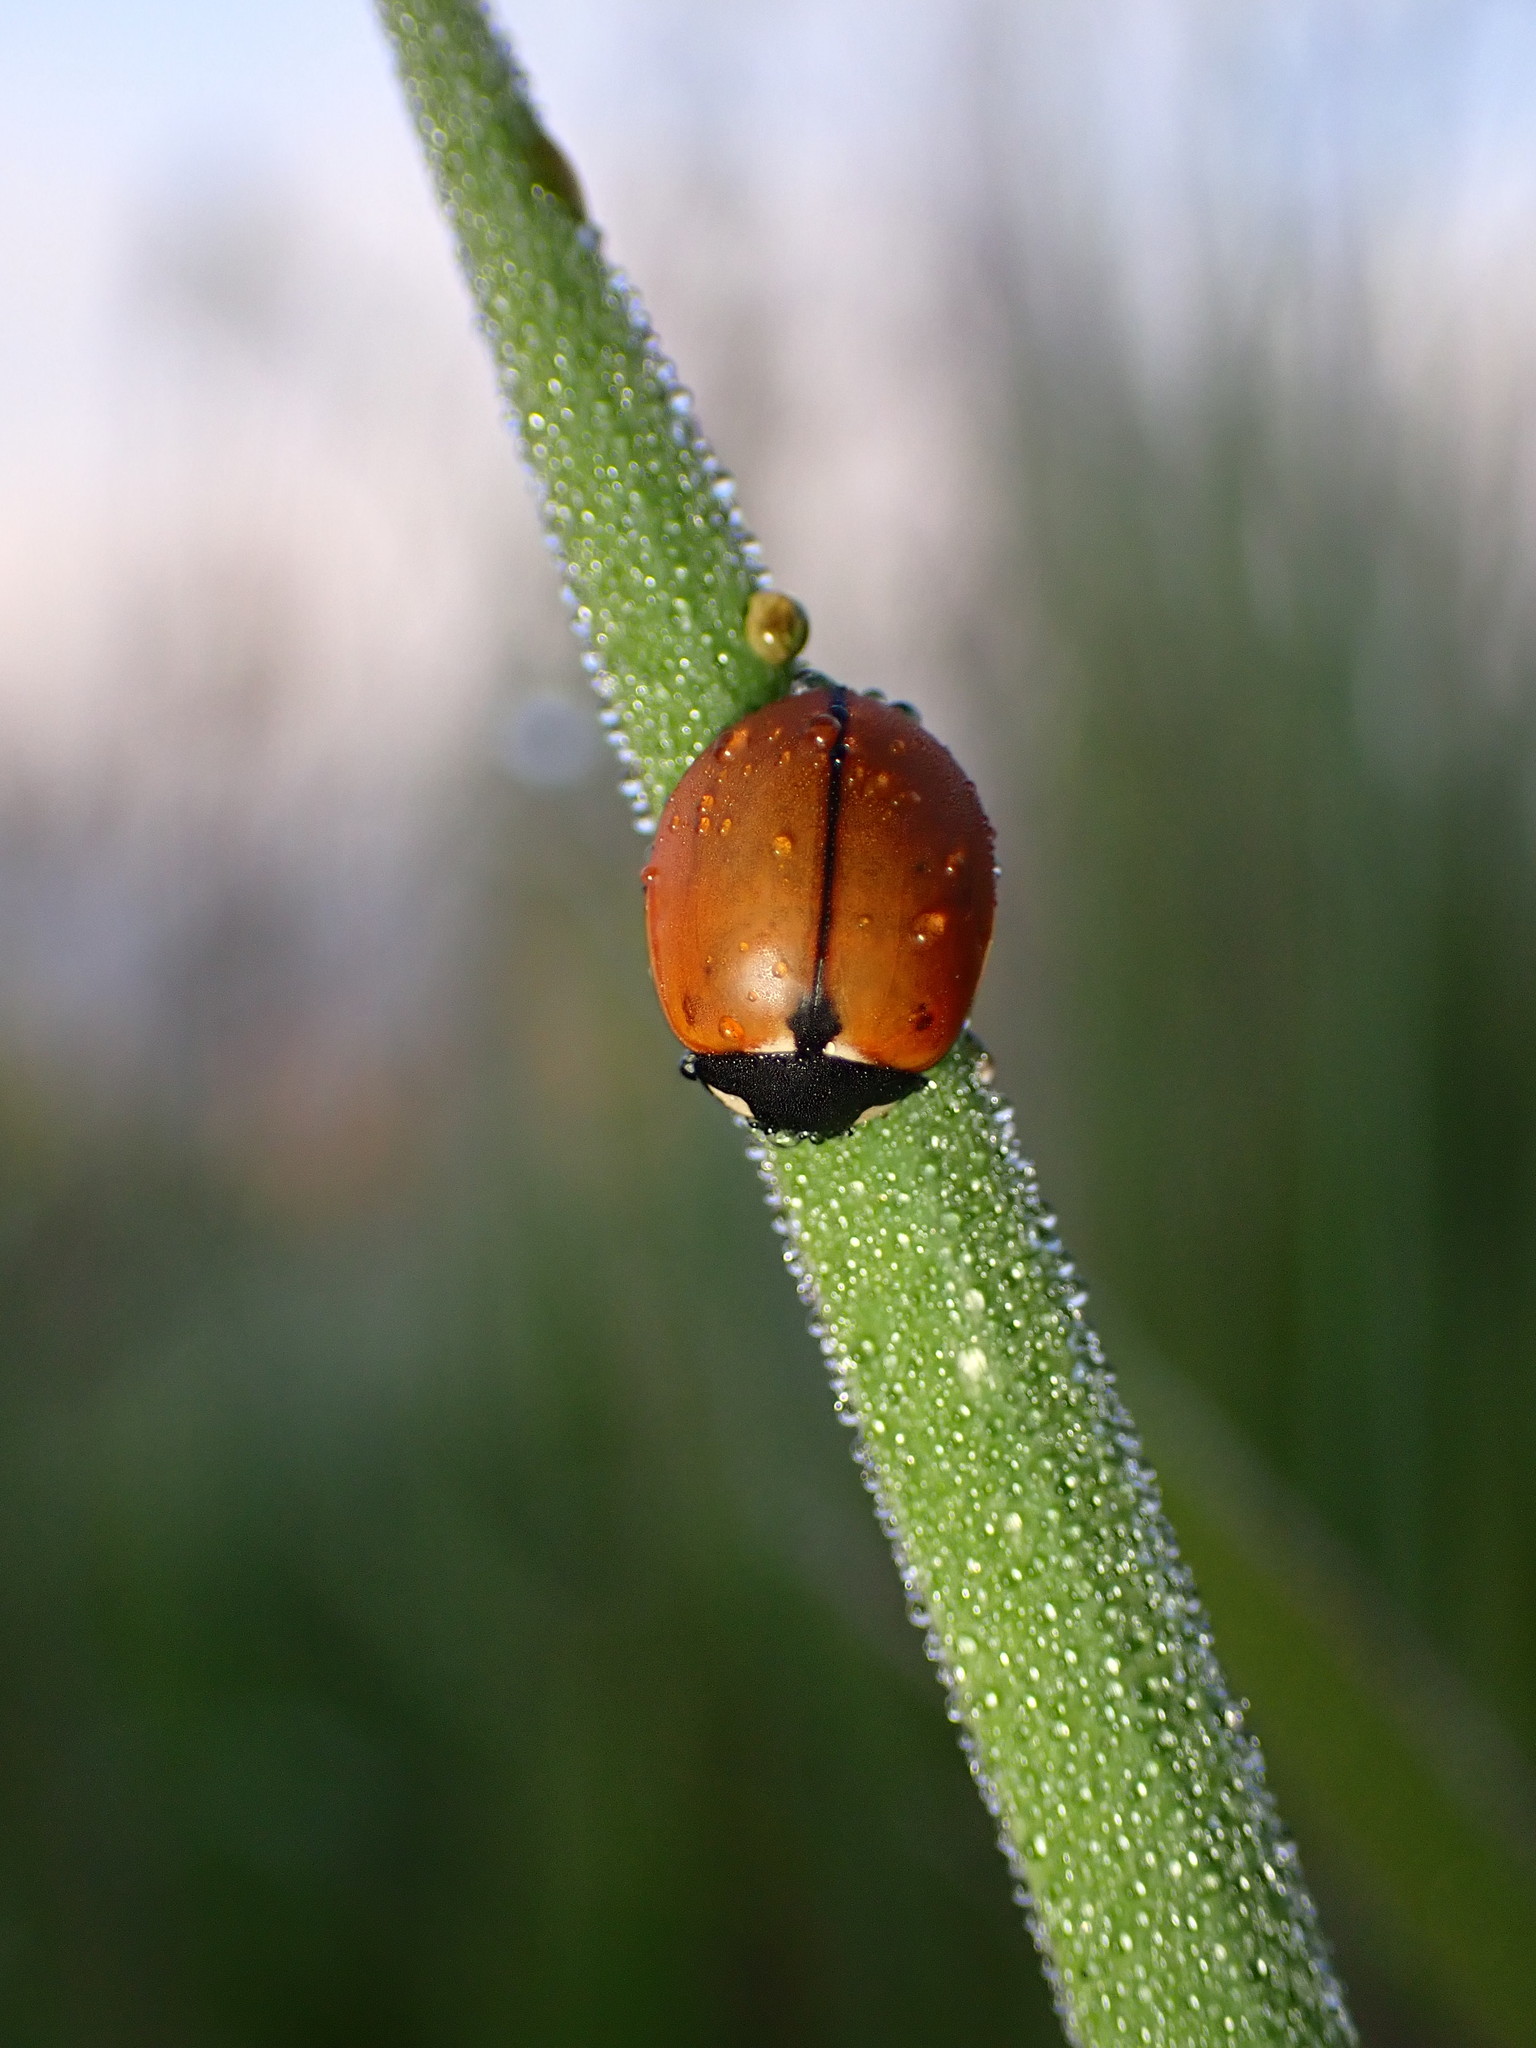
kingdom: Animalia
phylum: Arthropoda
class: Insecta
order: Coleoptera
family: Coccinellidae
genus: Coccinella
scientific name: Coccinella californica
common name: Lady beetle
